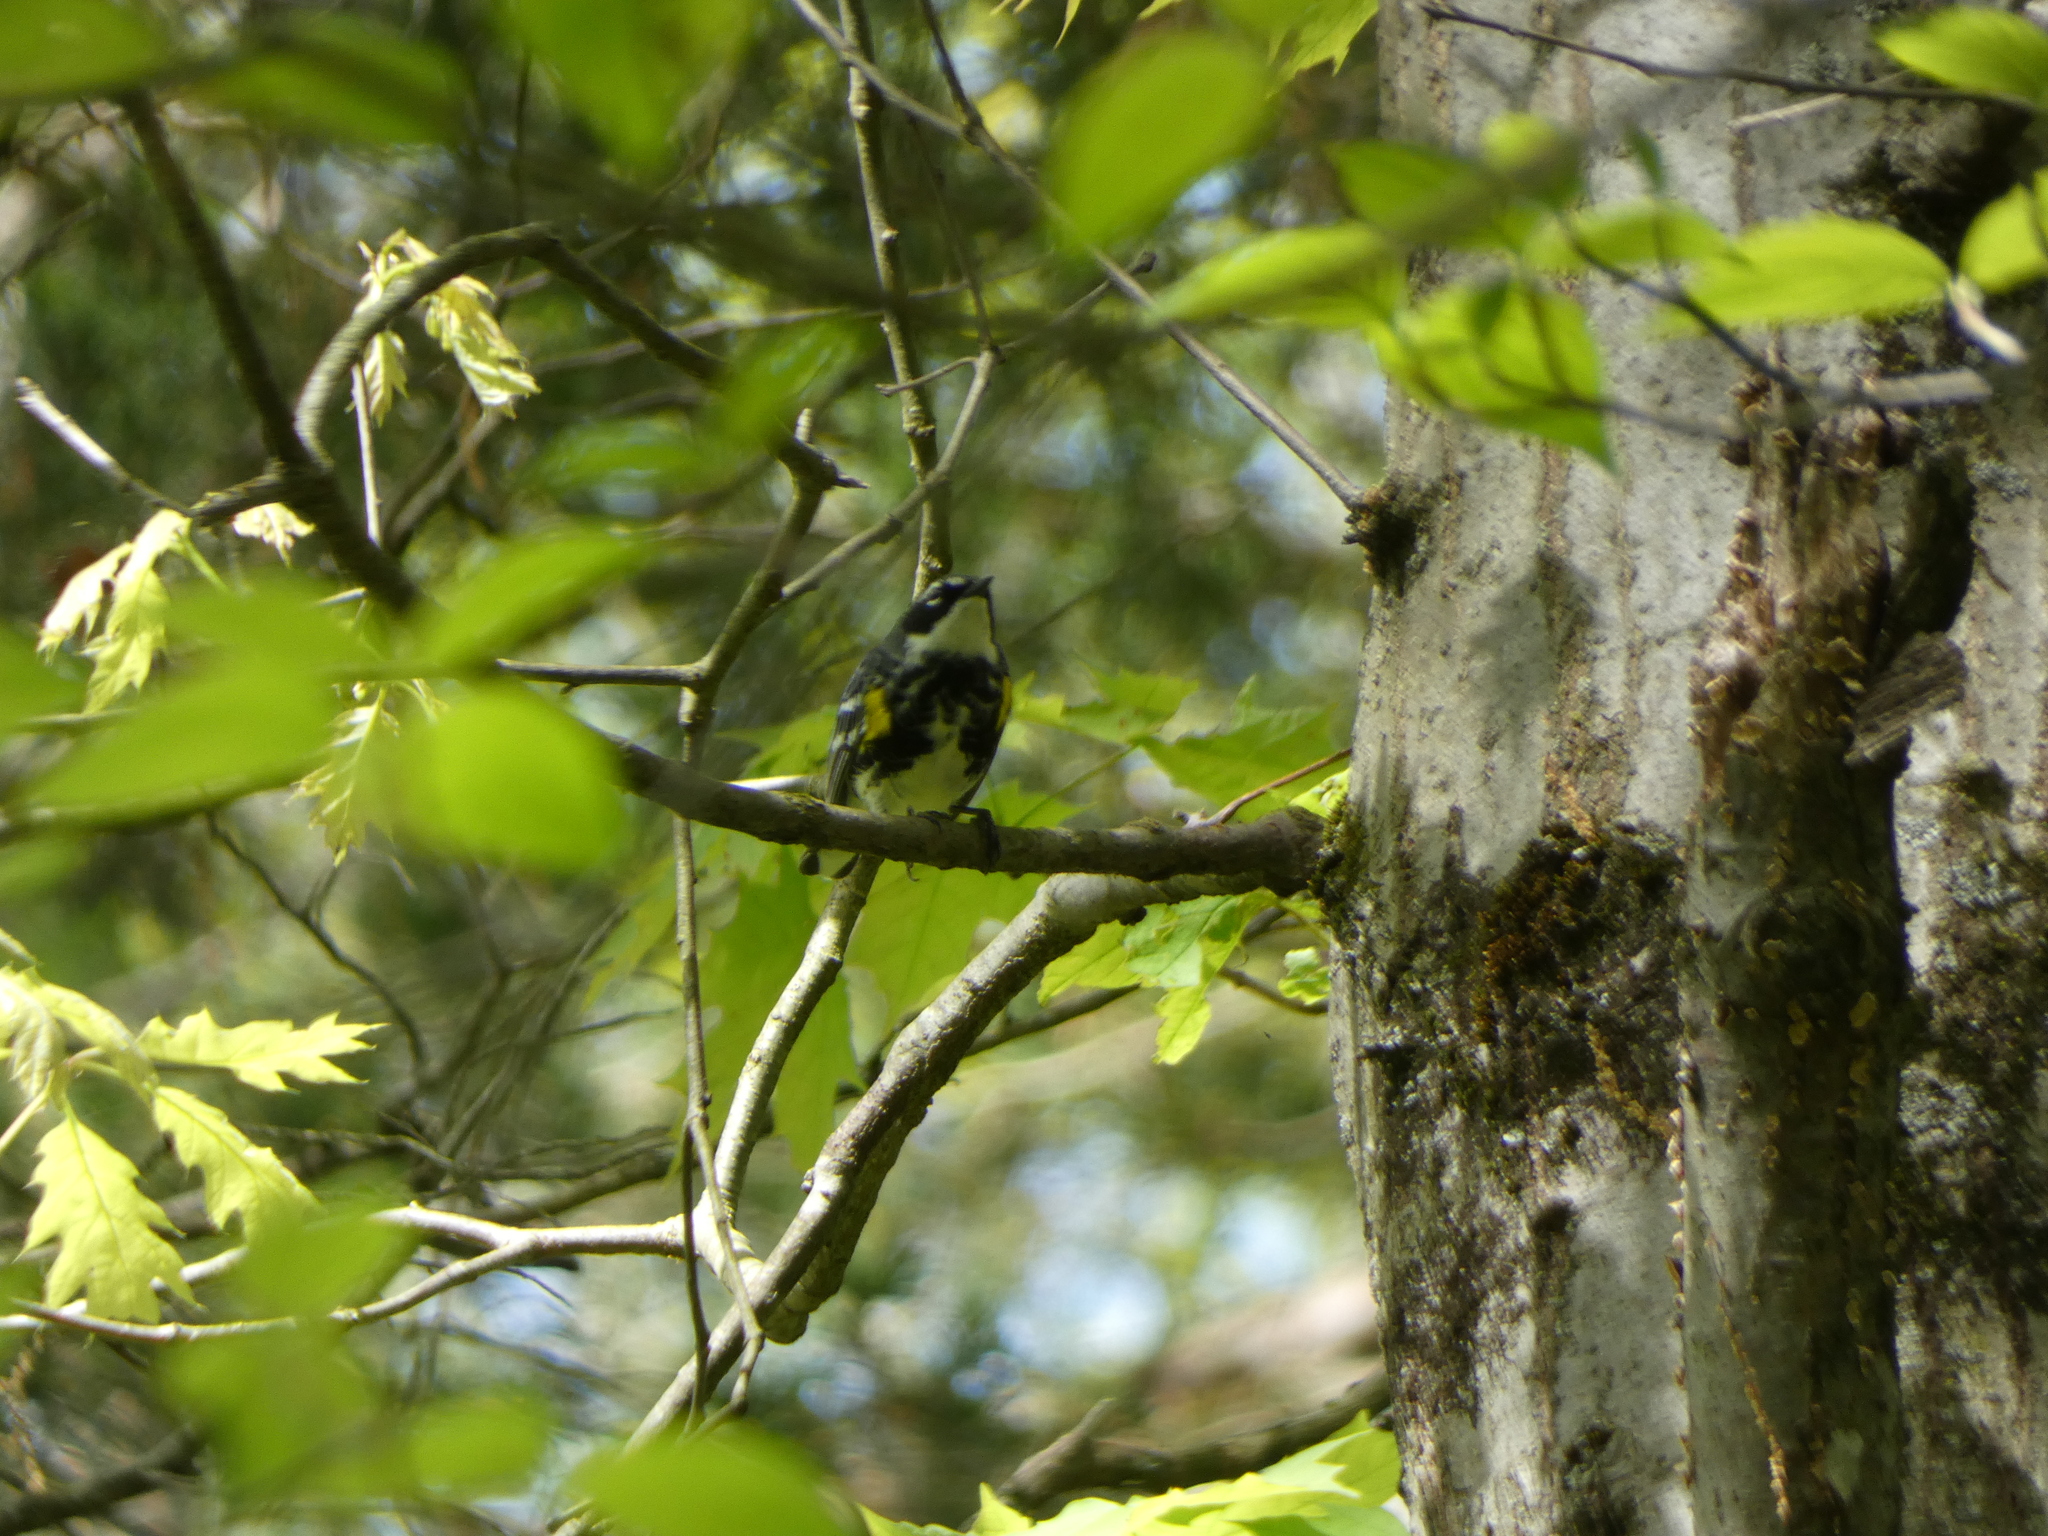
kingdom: Animalia
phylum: Chordata
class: Aves
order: Passeriformes
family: Parulidae
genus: Setophaga
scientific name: Setophaga coronata
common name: Myrtle warbler
